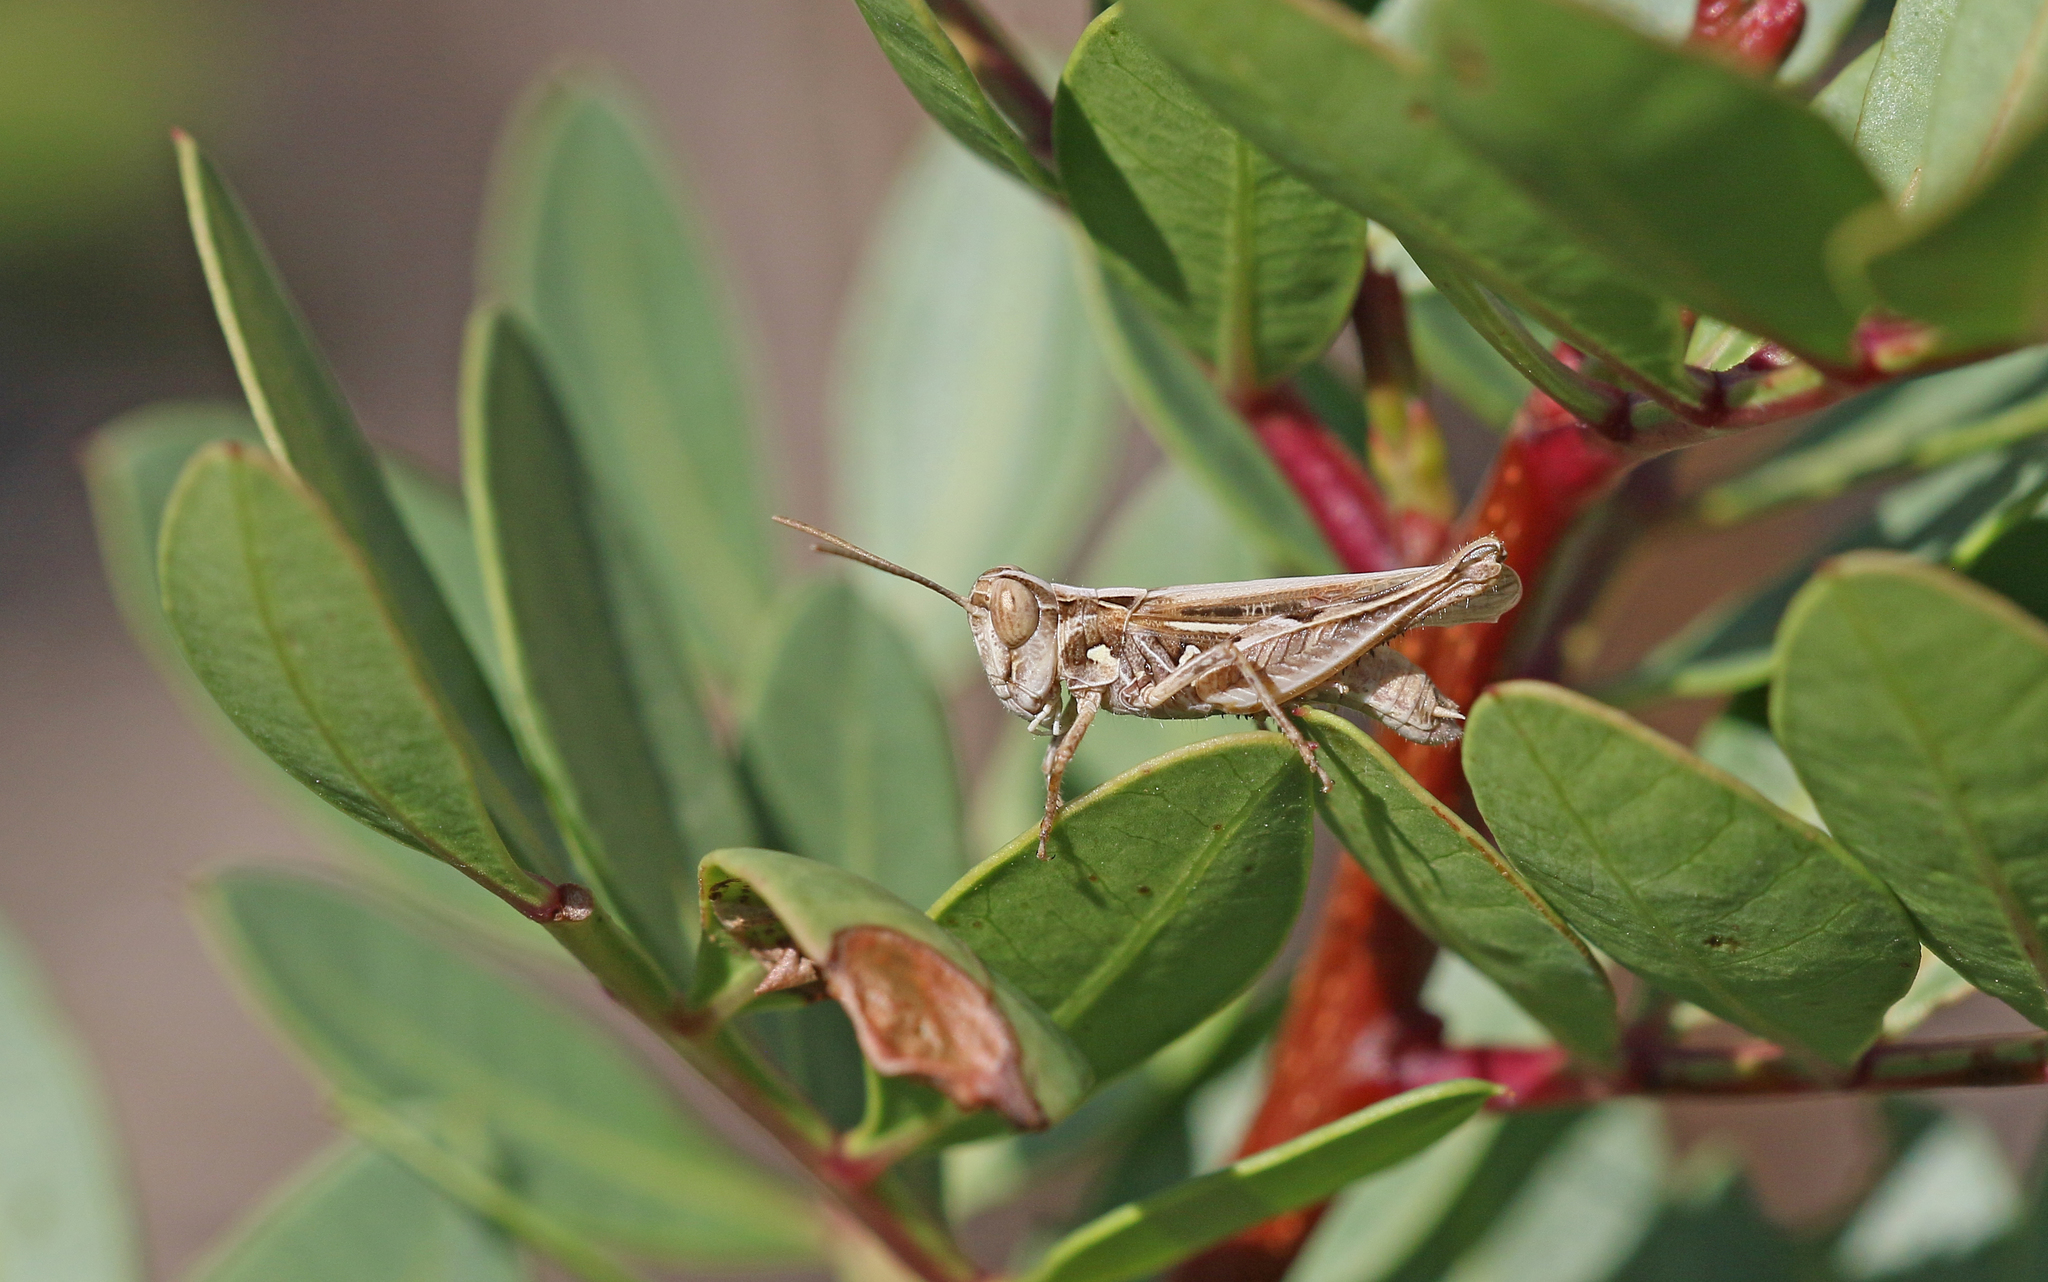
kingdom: Animalia
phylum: Arthropoda
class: Insecta
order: Orthoptera
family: Acrididae
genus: Dociostaurus
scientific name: Dociostaurus jagoi
